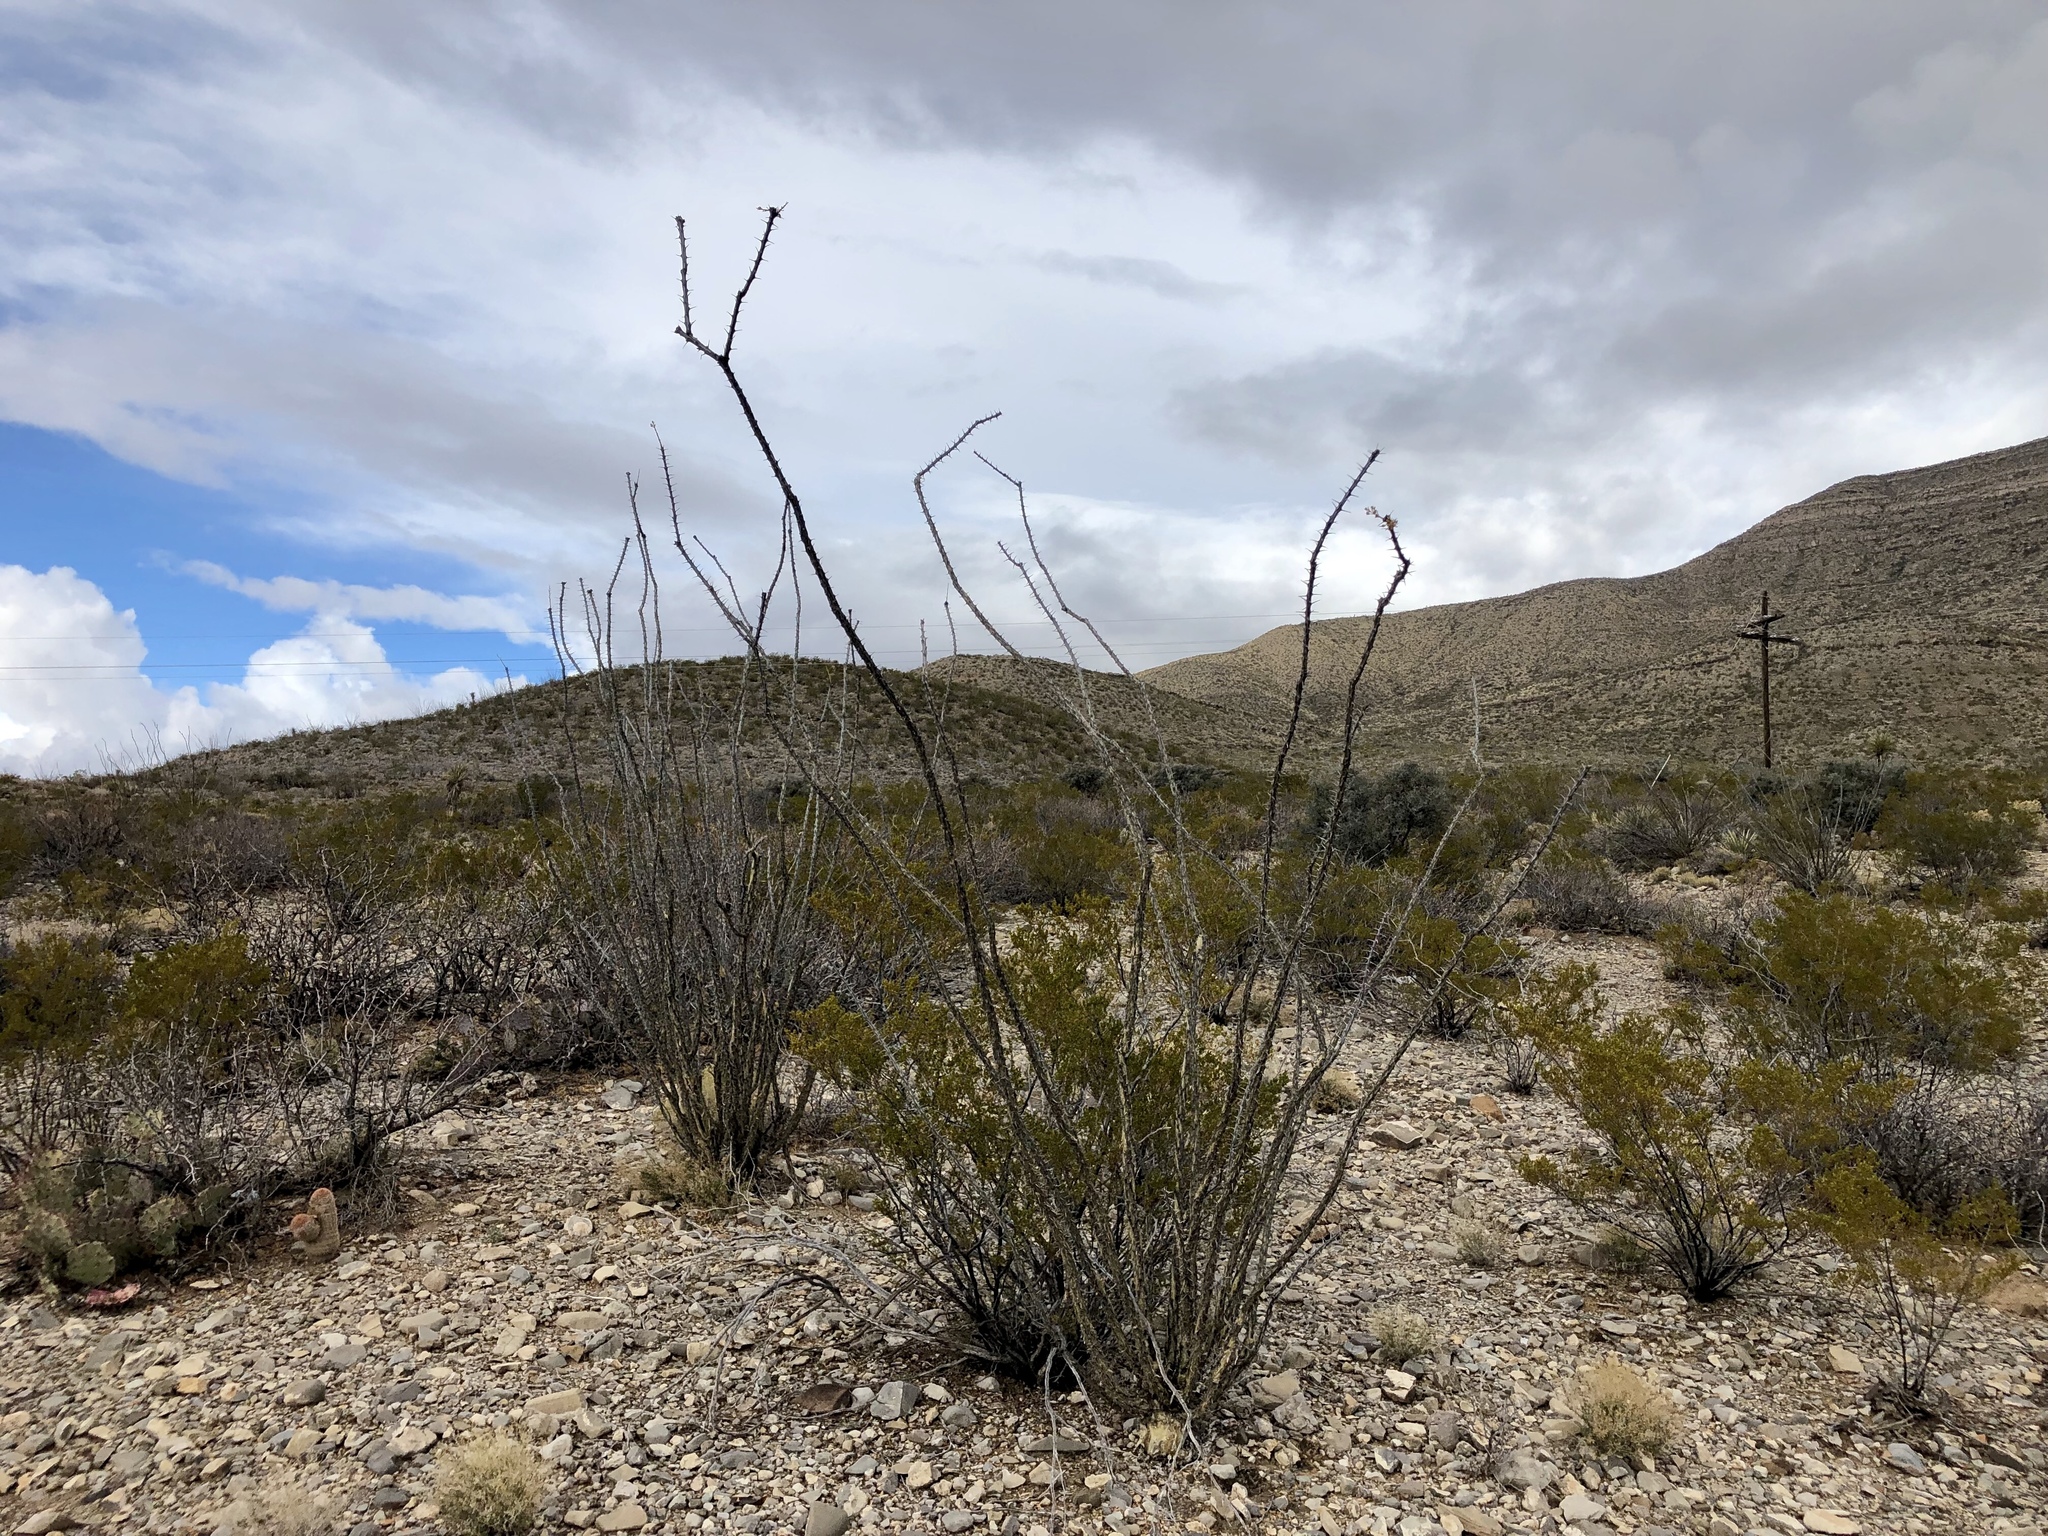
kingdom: Plantae
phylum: Tracheophyta
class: Magnoliopsida
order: Ericales
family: Fouquieriaceae
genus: Fouquieria
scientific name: Fouquieria splendens
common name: Vine-cactus
